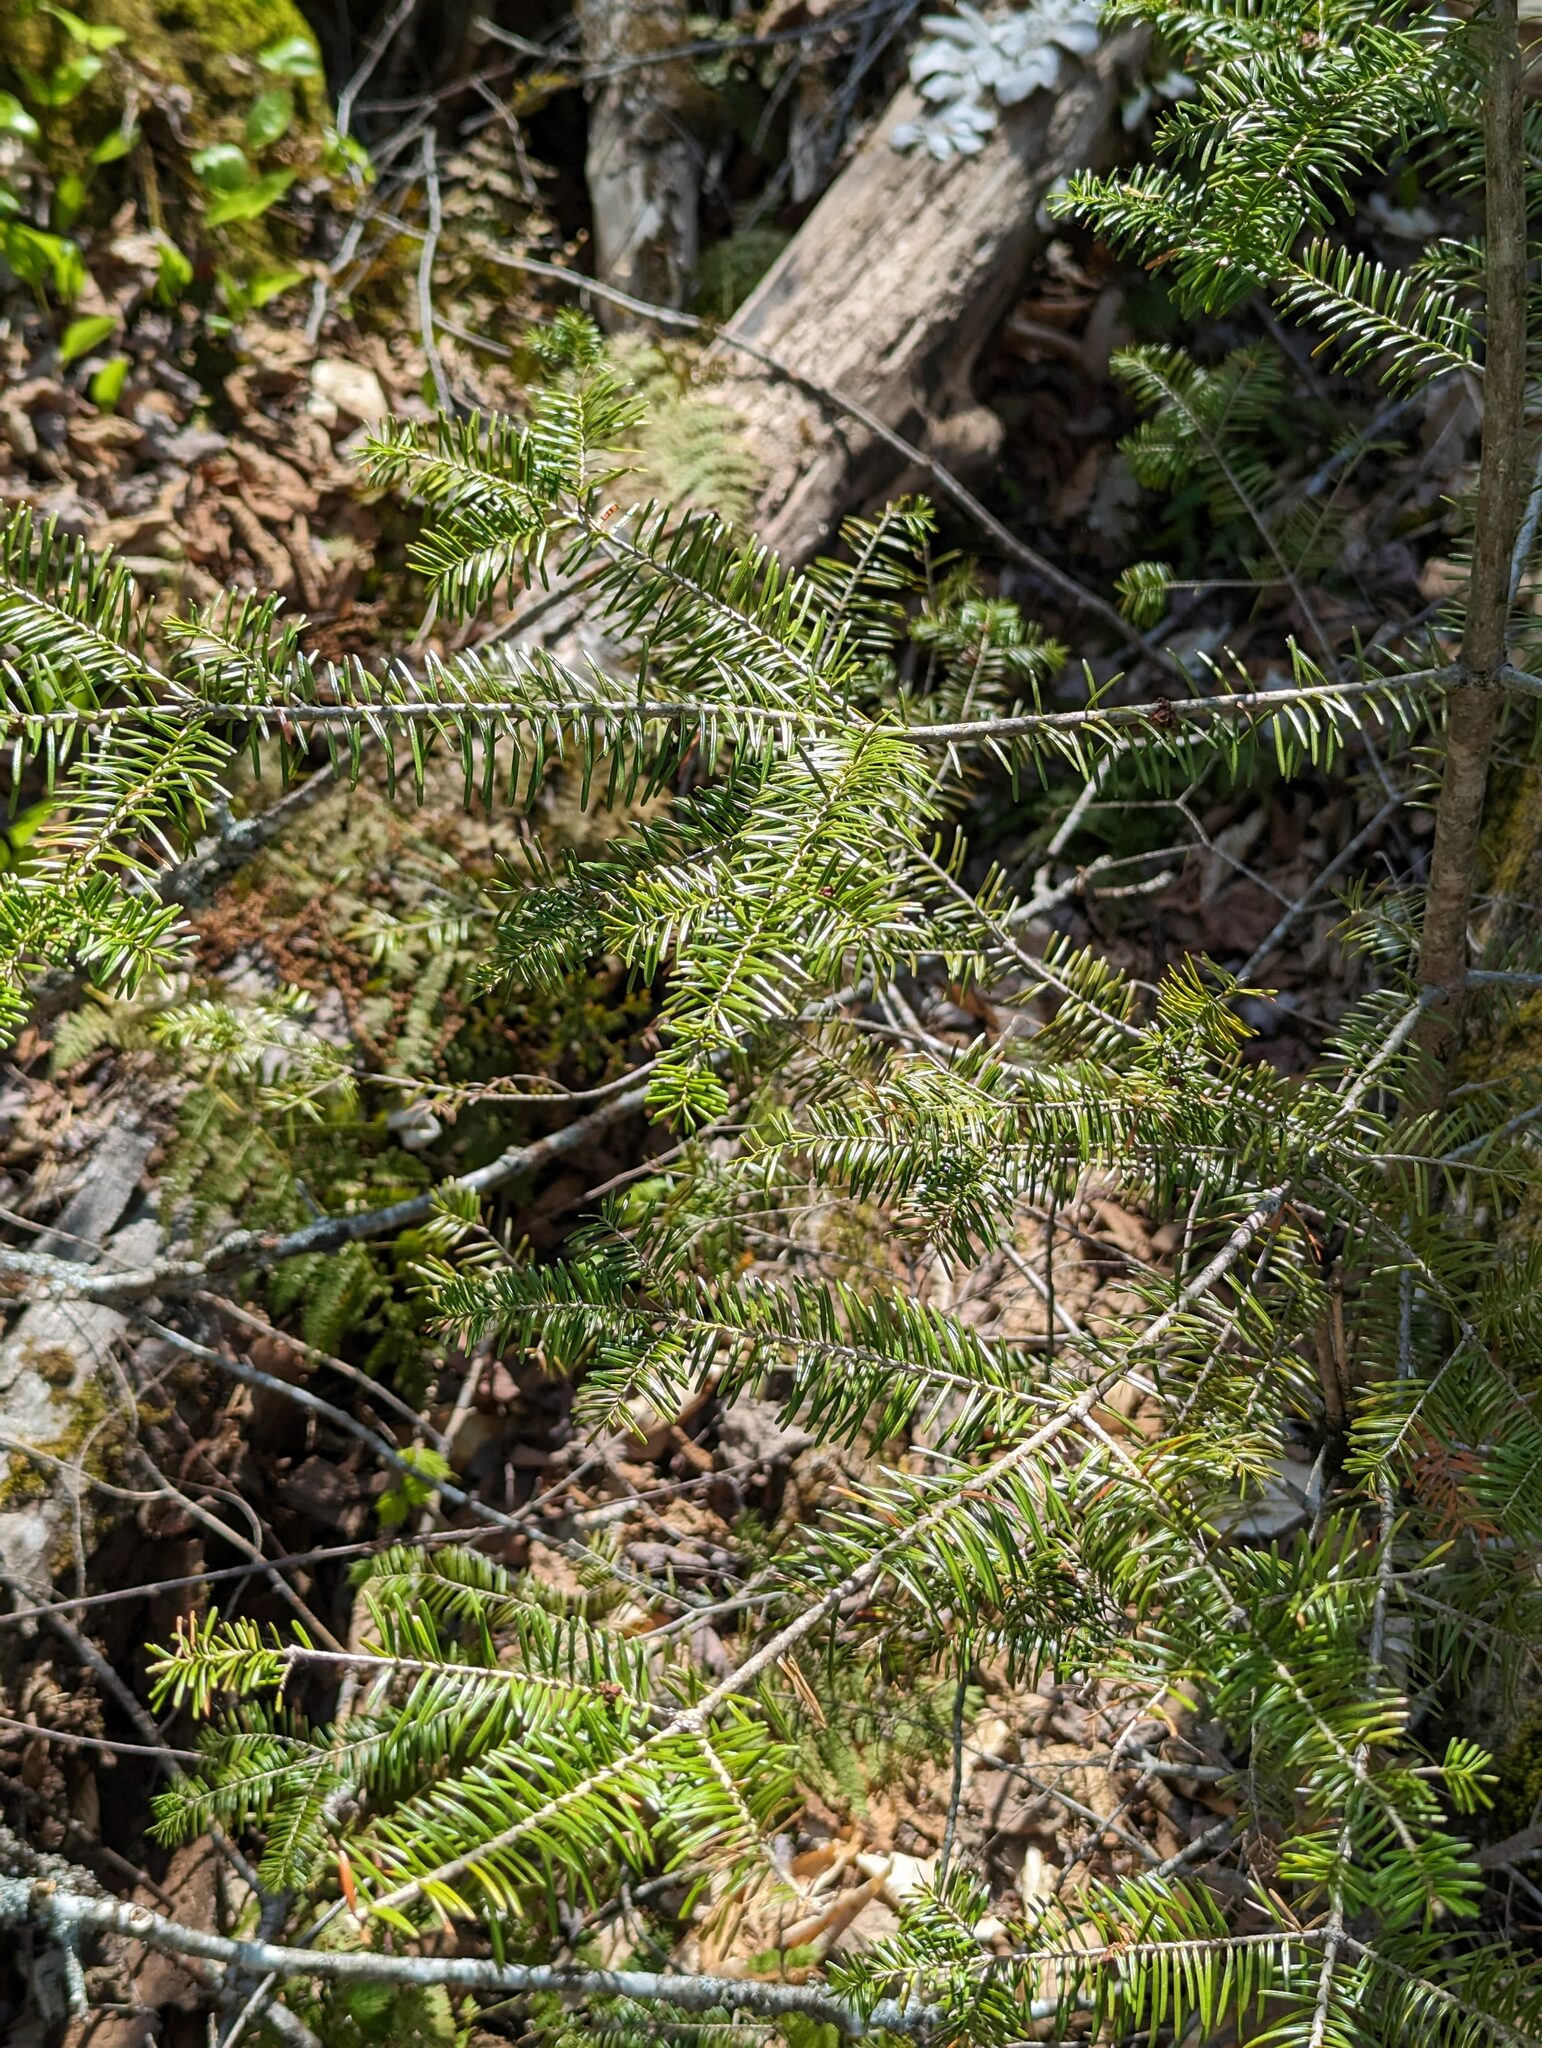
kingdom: Plantae
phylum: Tracheophyta
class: Pinopsida
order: Pinales
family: Pinaceae
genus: Abies
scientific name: Abies balsamea
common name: Balsam fir
